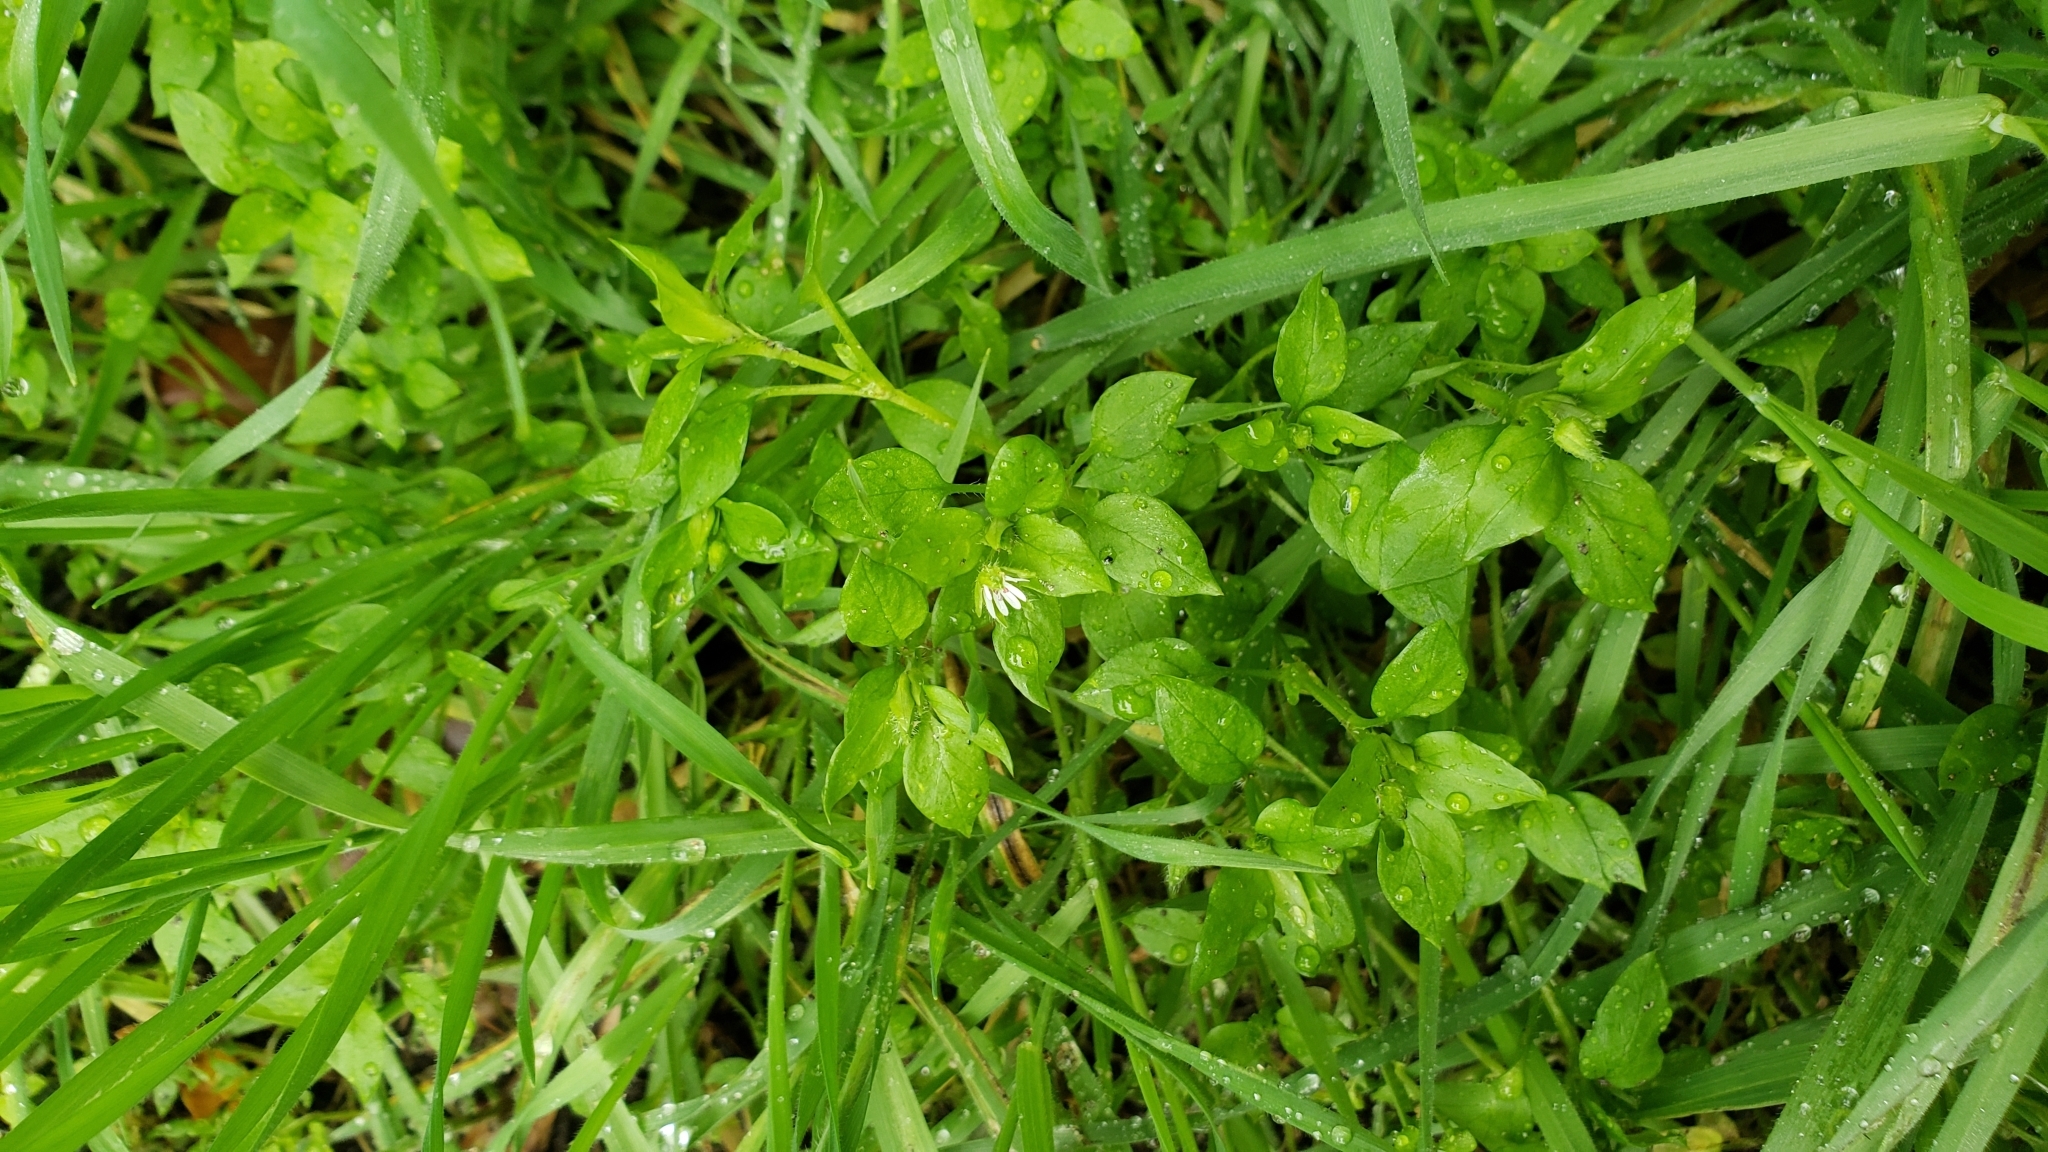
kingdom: Plantae
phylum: Tracheophyta
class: Magnoliopsida
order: Caryophyllales
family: Caryophyllaceae
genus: Stellaria
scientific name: Stellaria media
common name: Common chickweed
